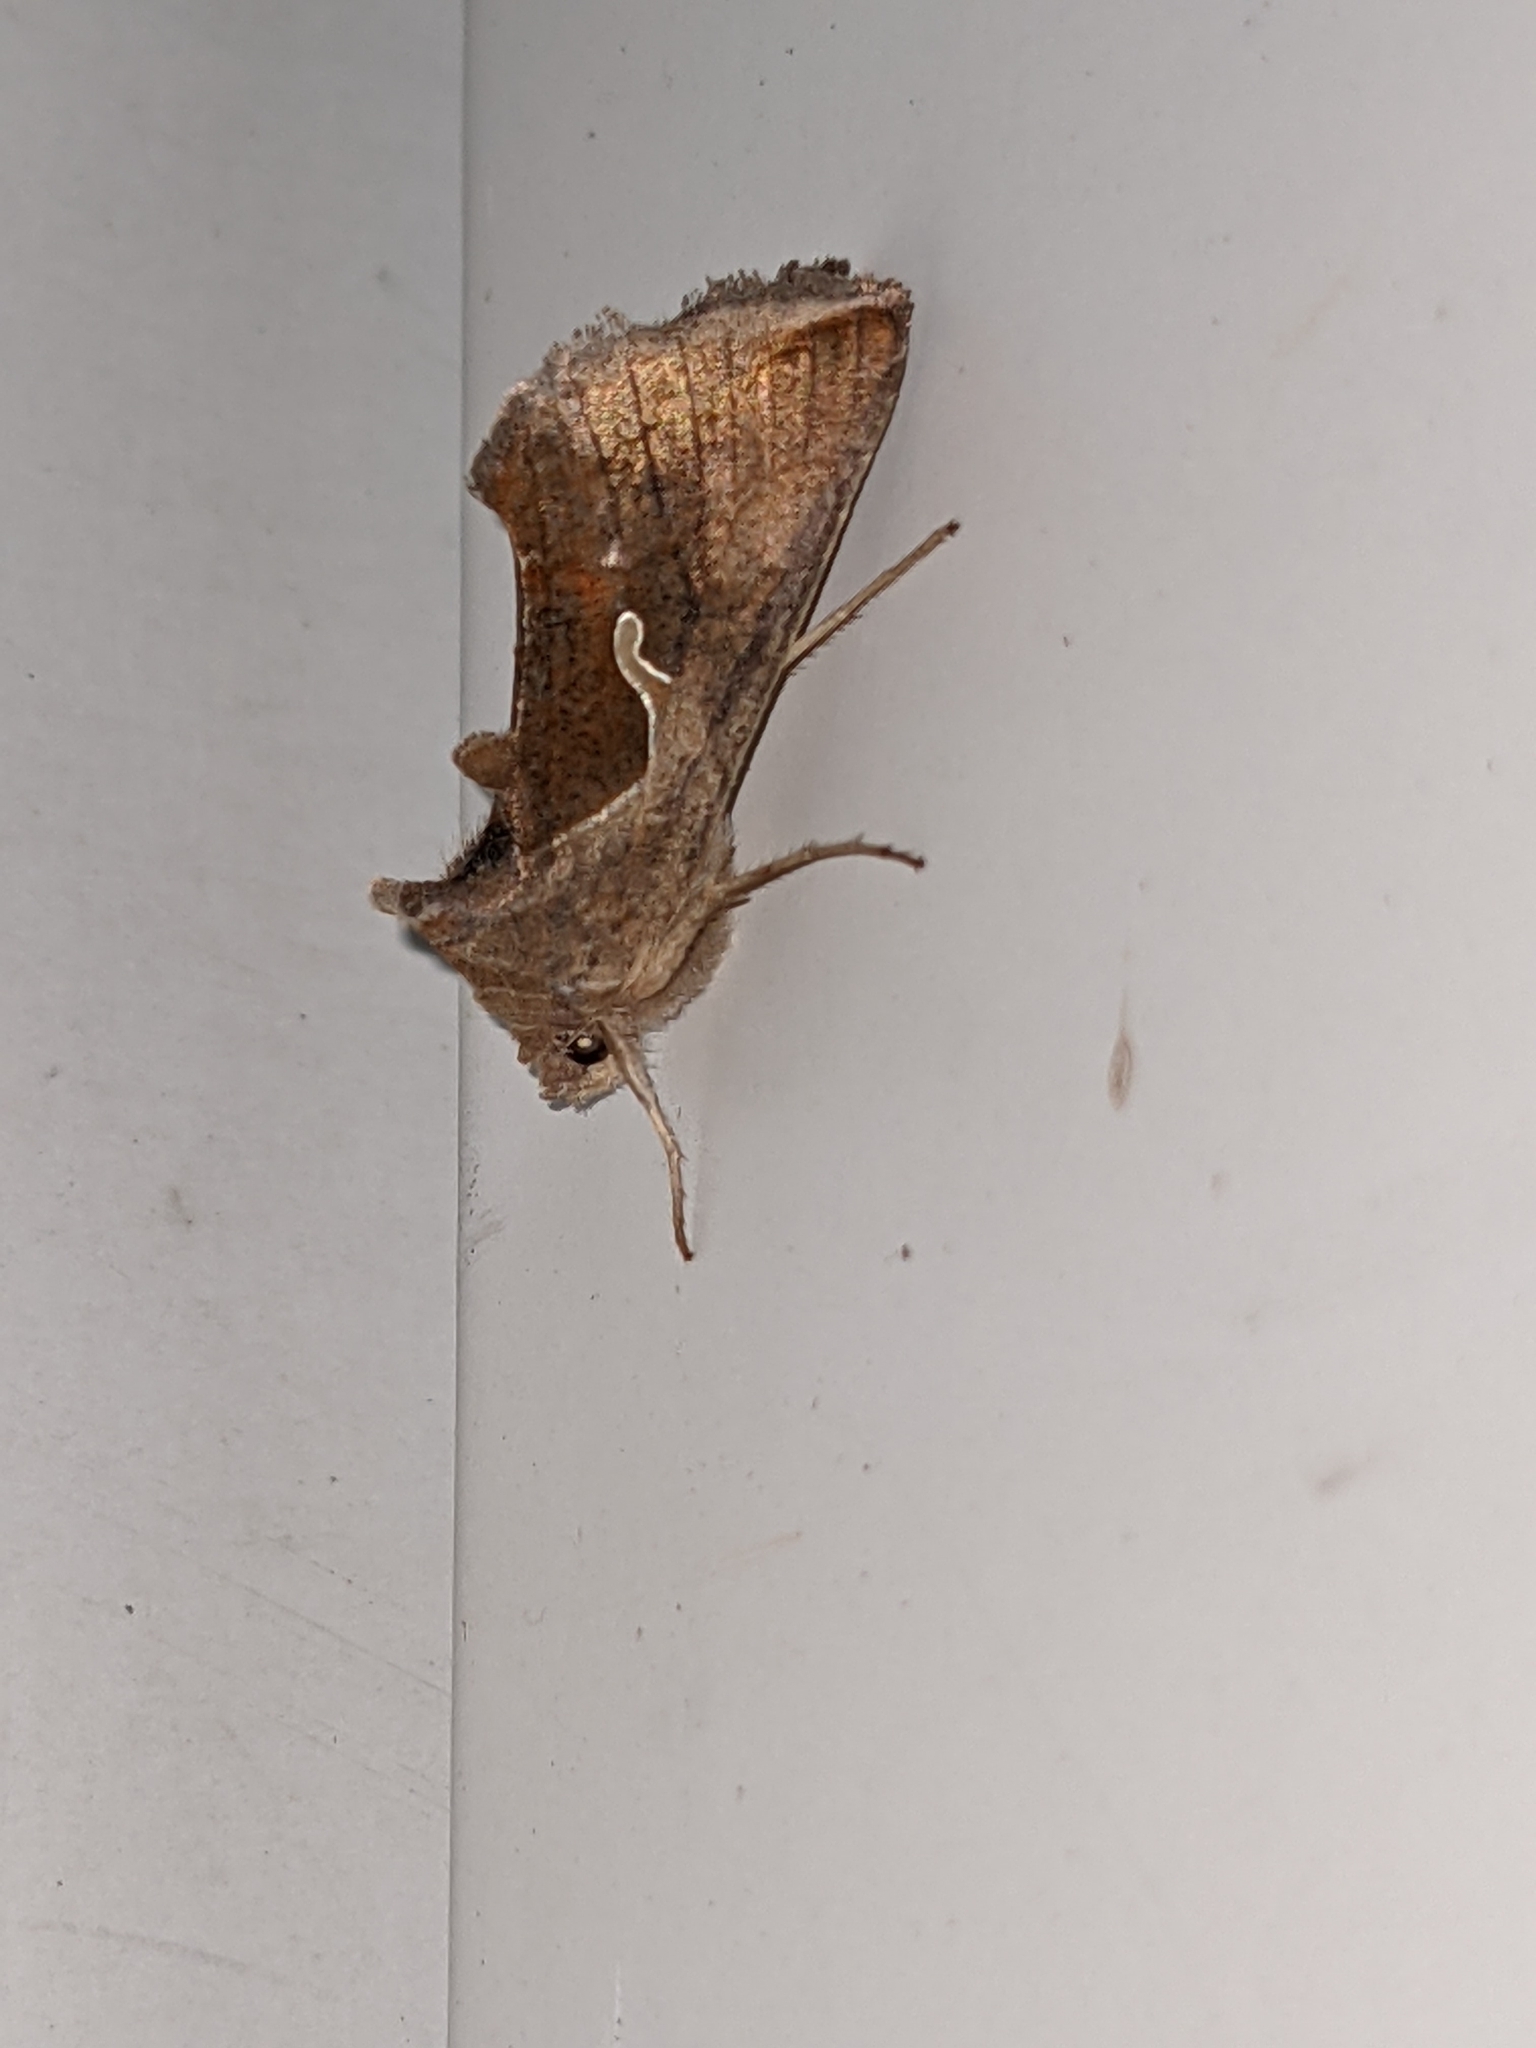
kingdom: Animalia
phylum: Arthropoda
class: Insecta
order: Lepidoptera
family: Noctuidae
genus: Anagrapha
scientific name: Anagrapha falcifera
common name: Celery looper
